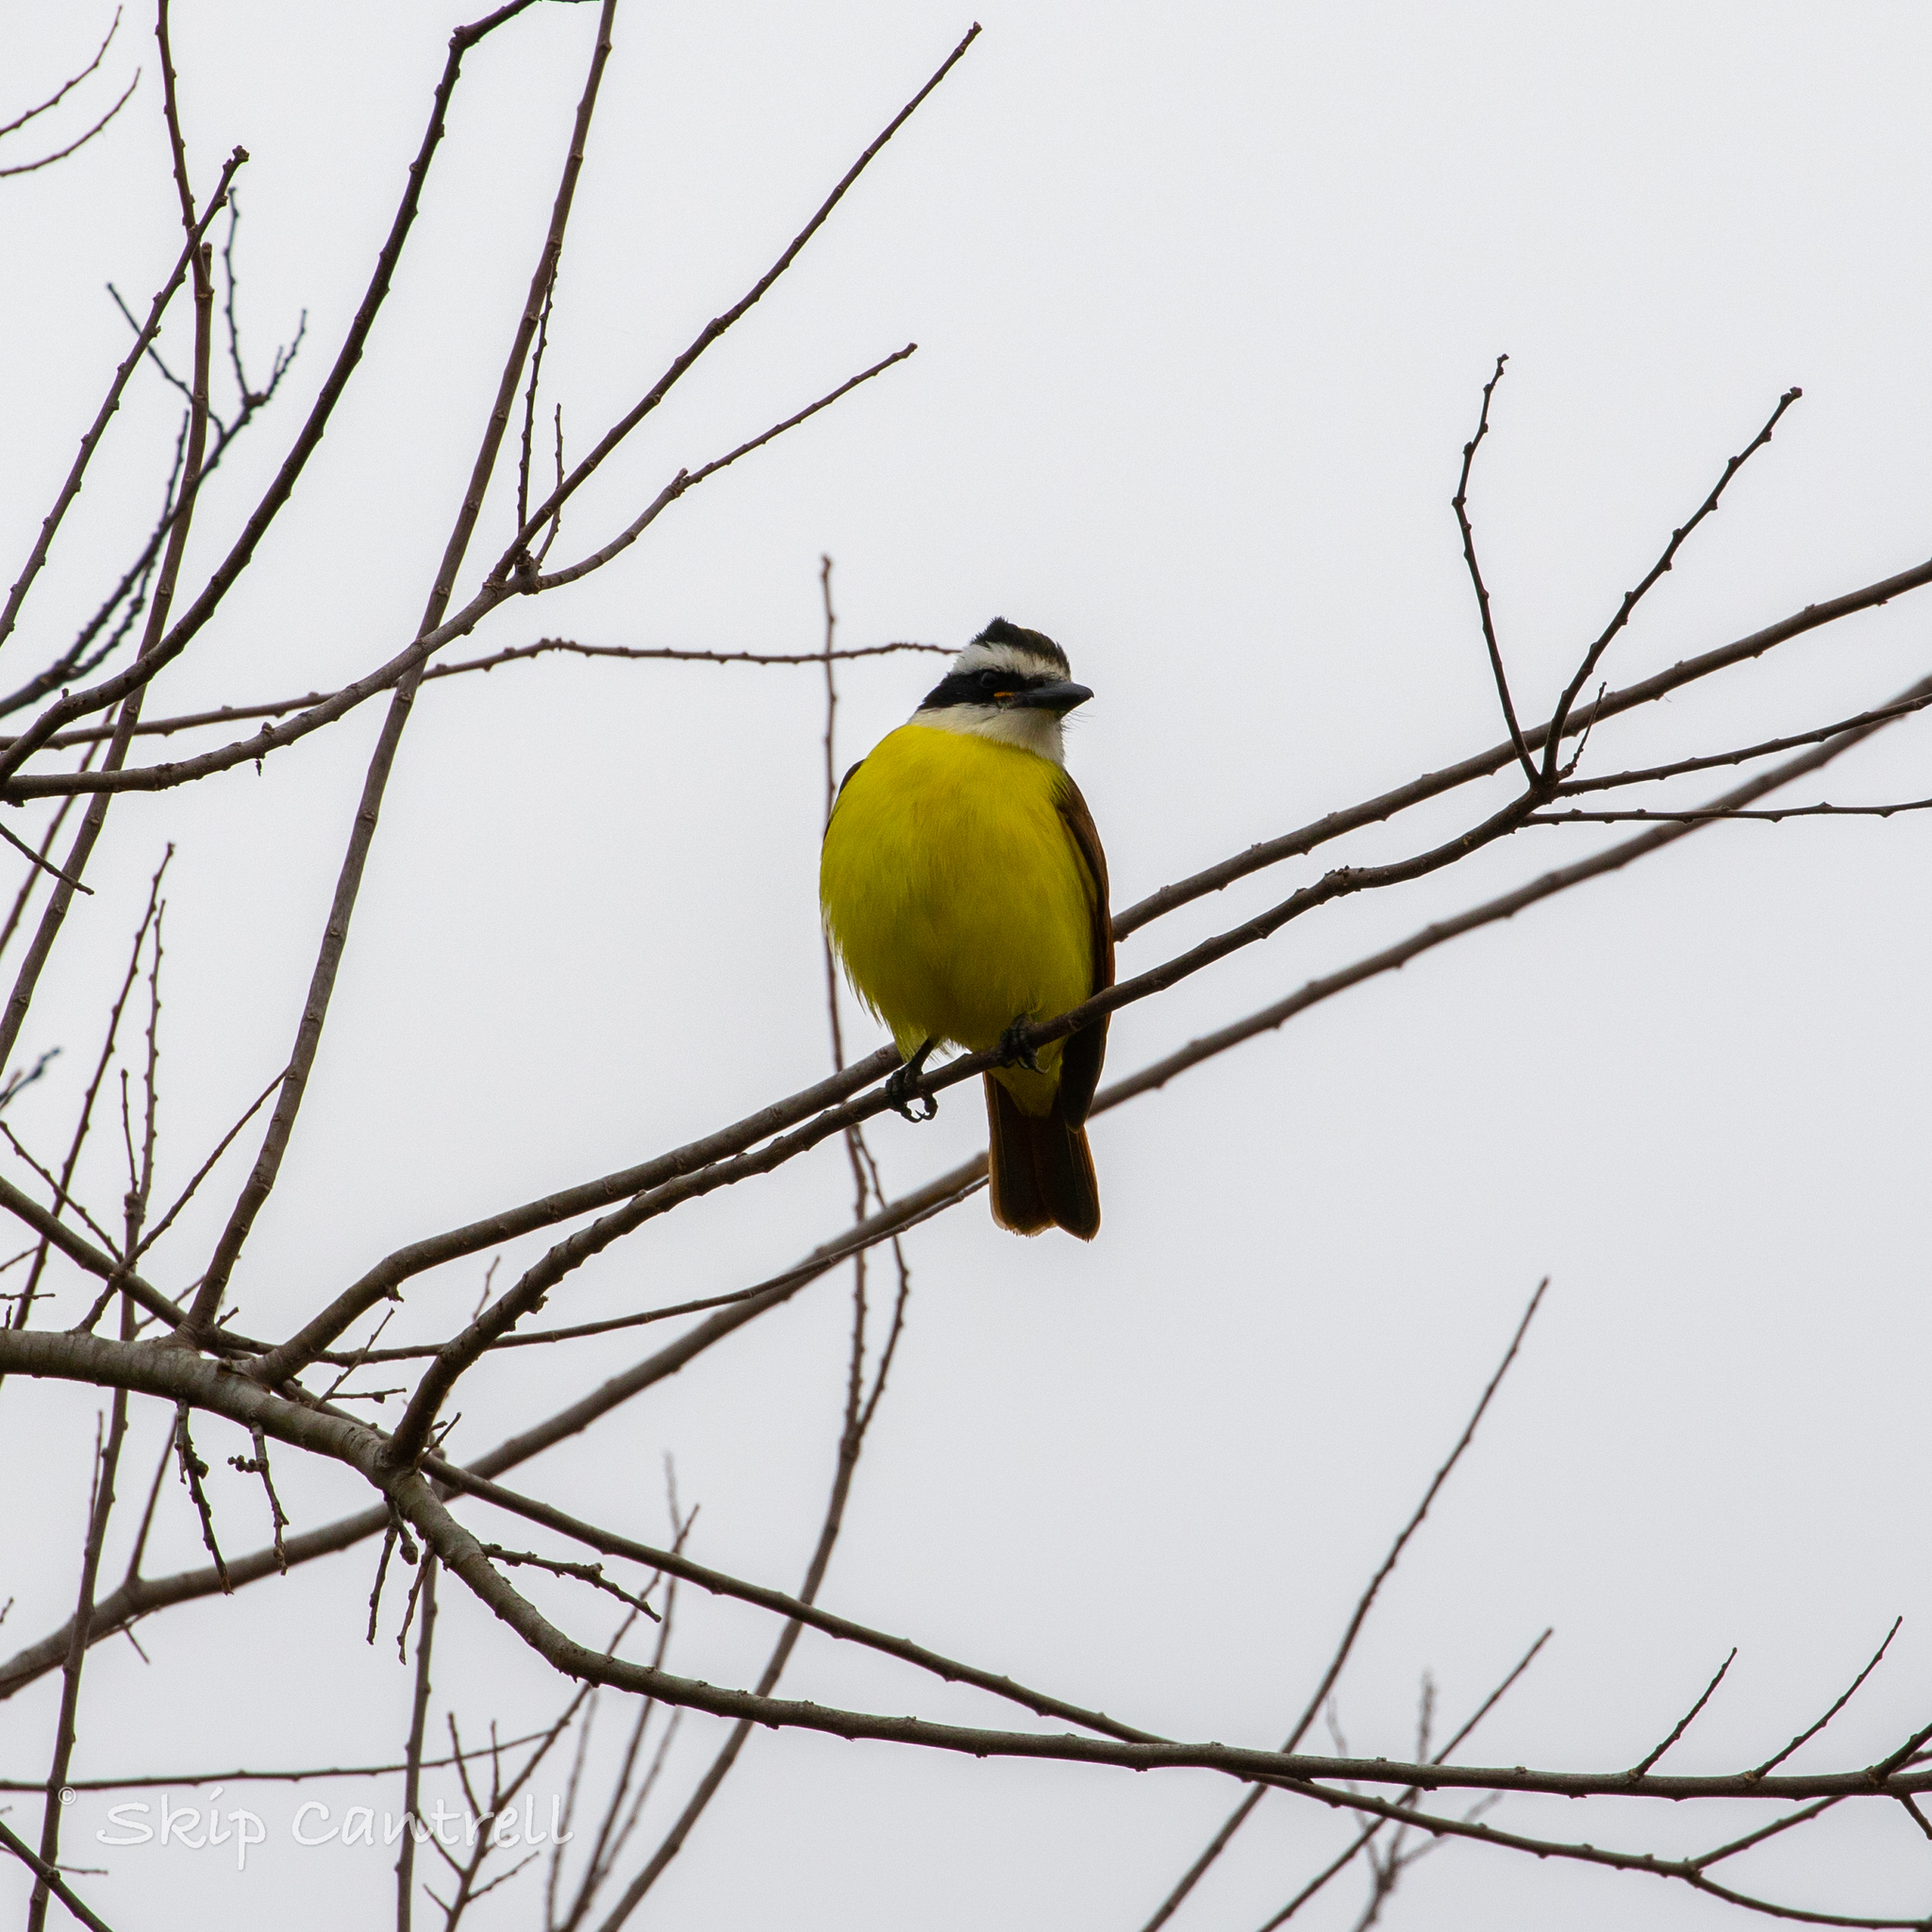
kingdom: Animalia
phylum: Chordata
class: Aves
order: Passeriformes
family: Tyrannidae
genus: Pitangus
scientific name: Pitangus sulphuratus
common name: Great kiskadee
